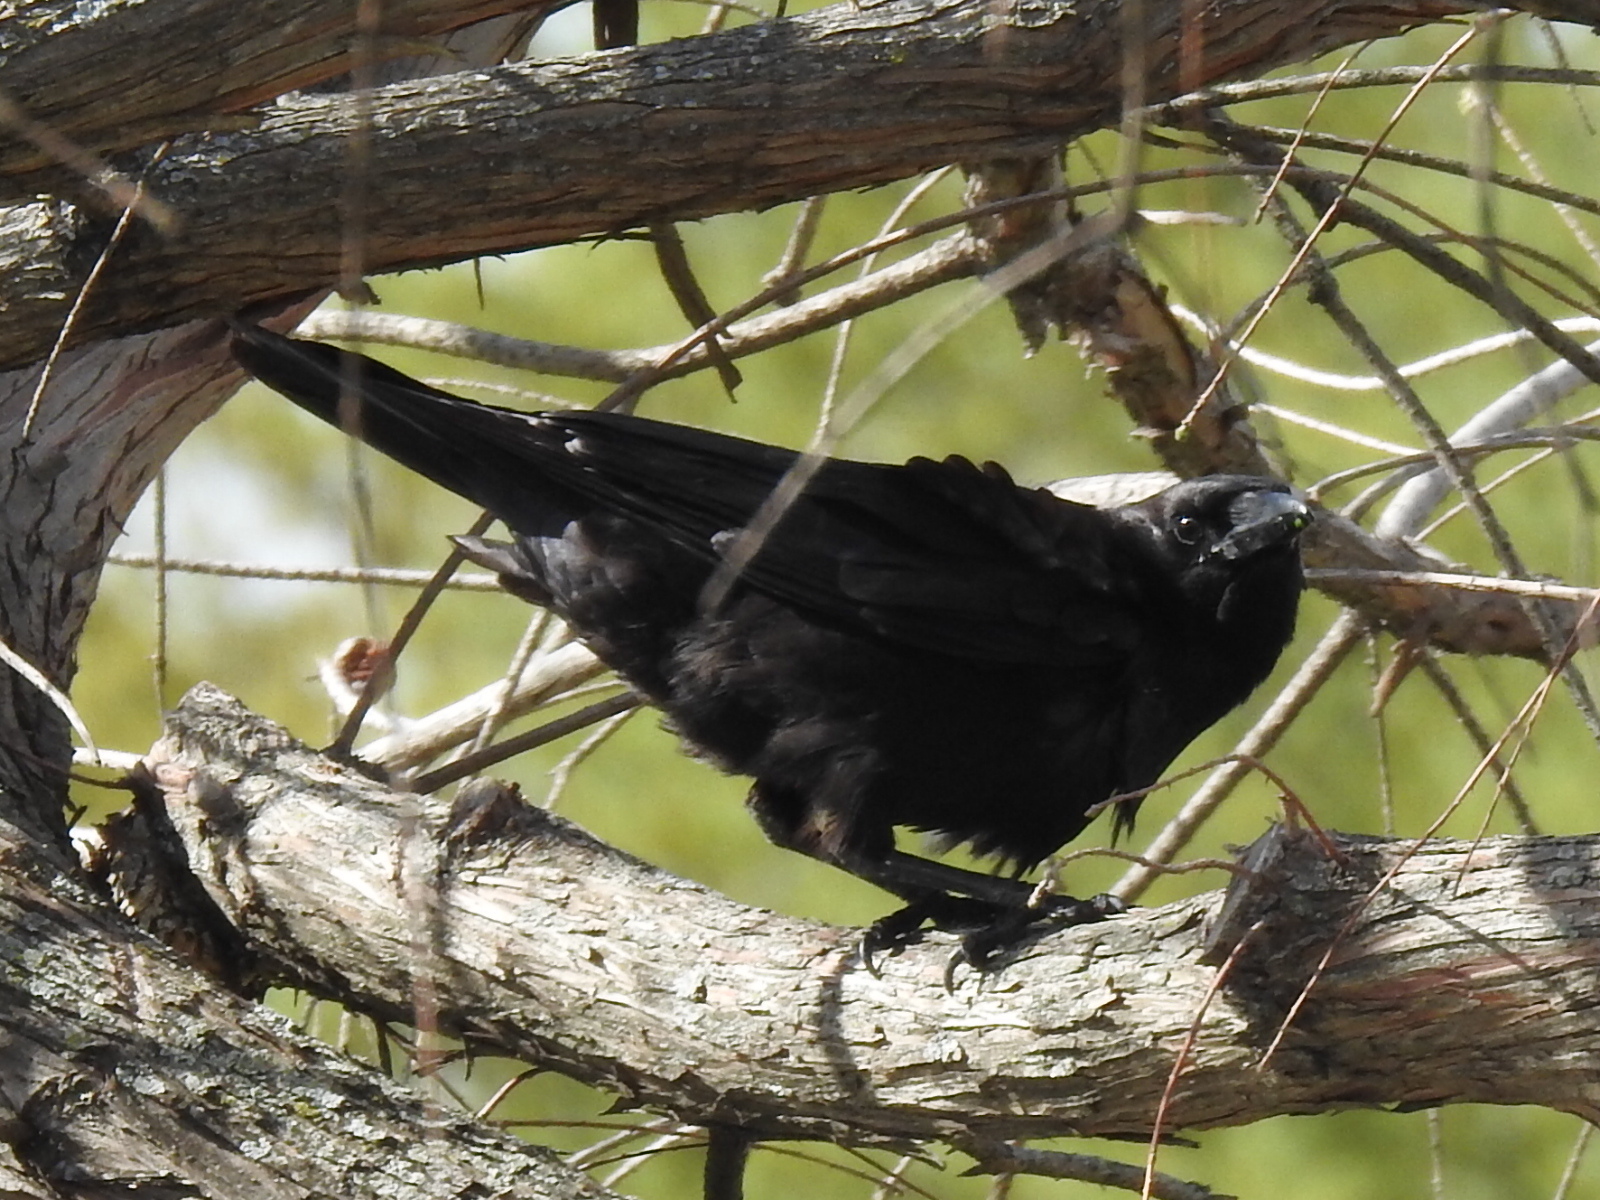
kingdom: Animalia
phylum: Chordata
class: Aves
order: Passeriformes
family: Corvidae
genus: Corvus
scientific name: Corvus brachyrhynchos
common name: American crow
